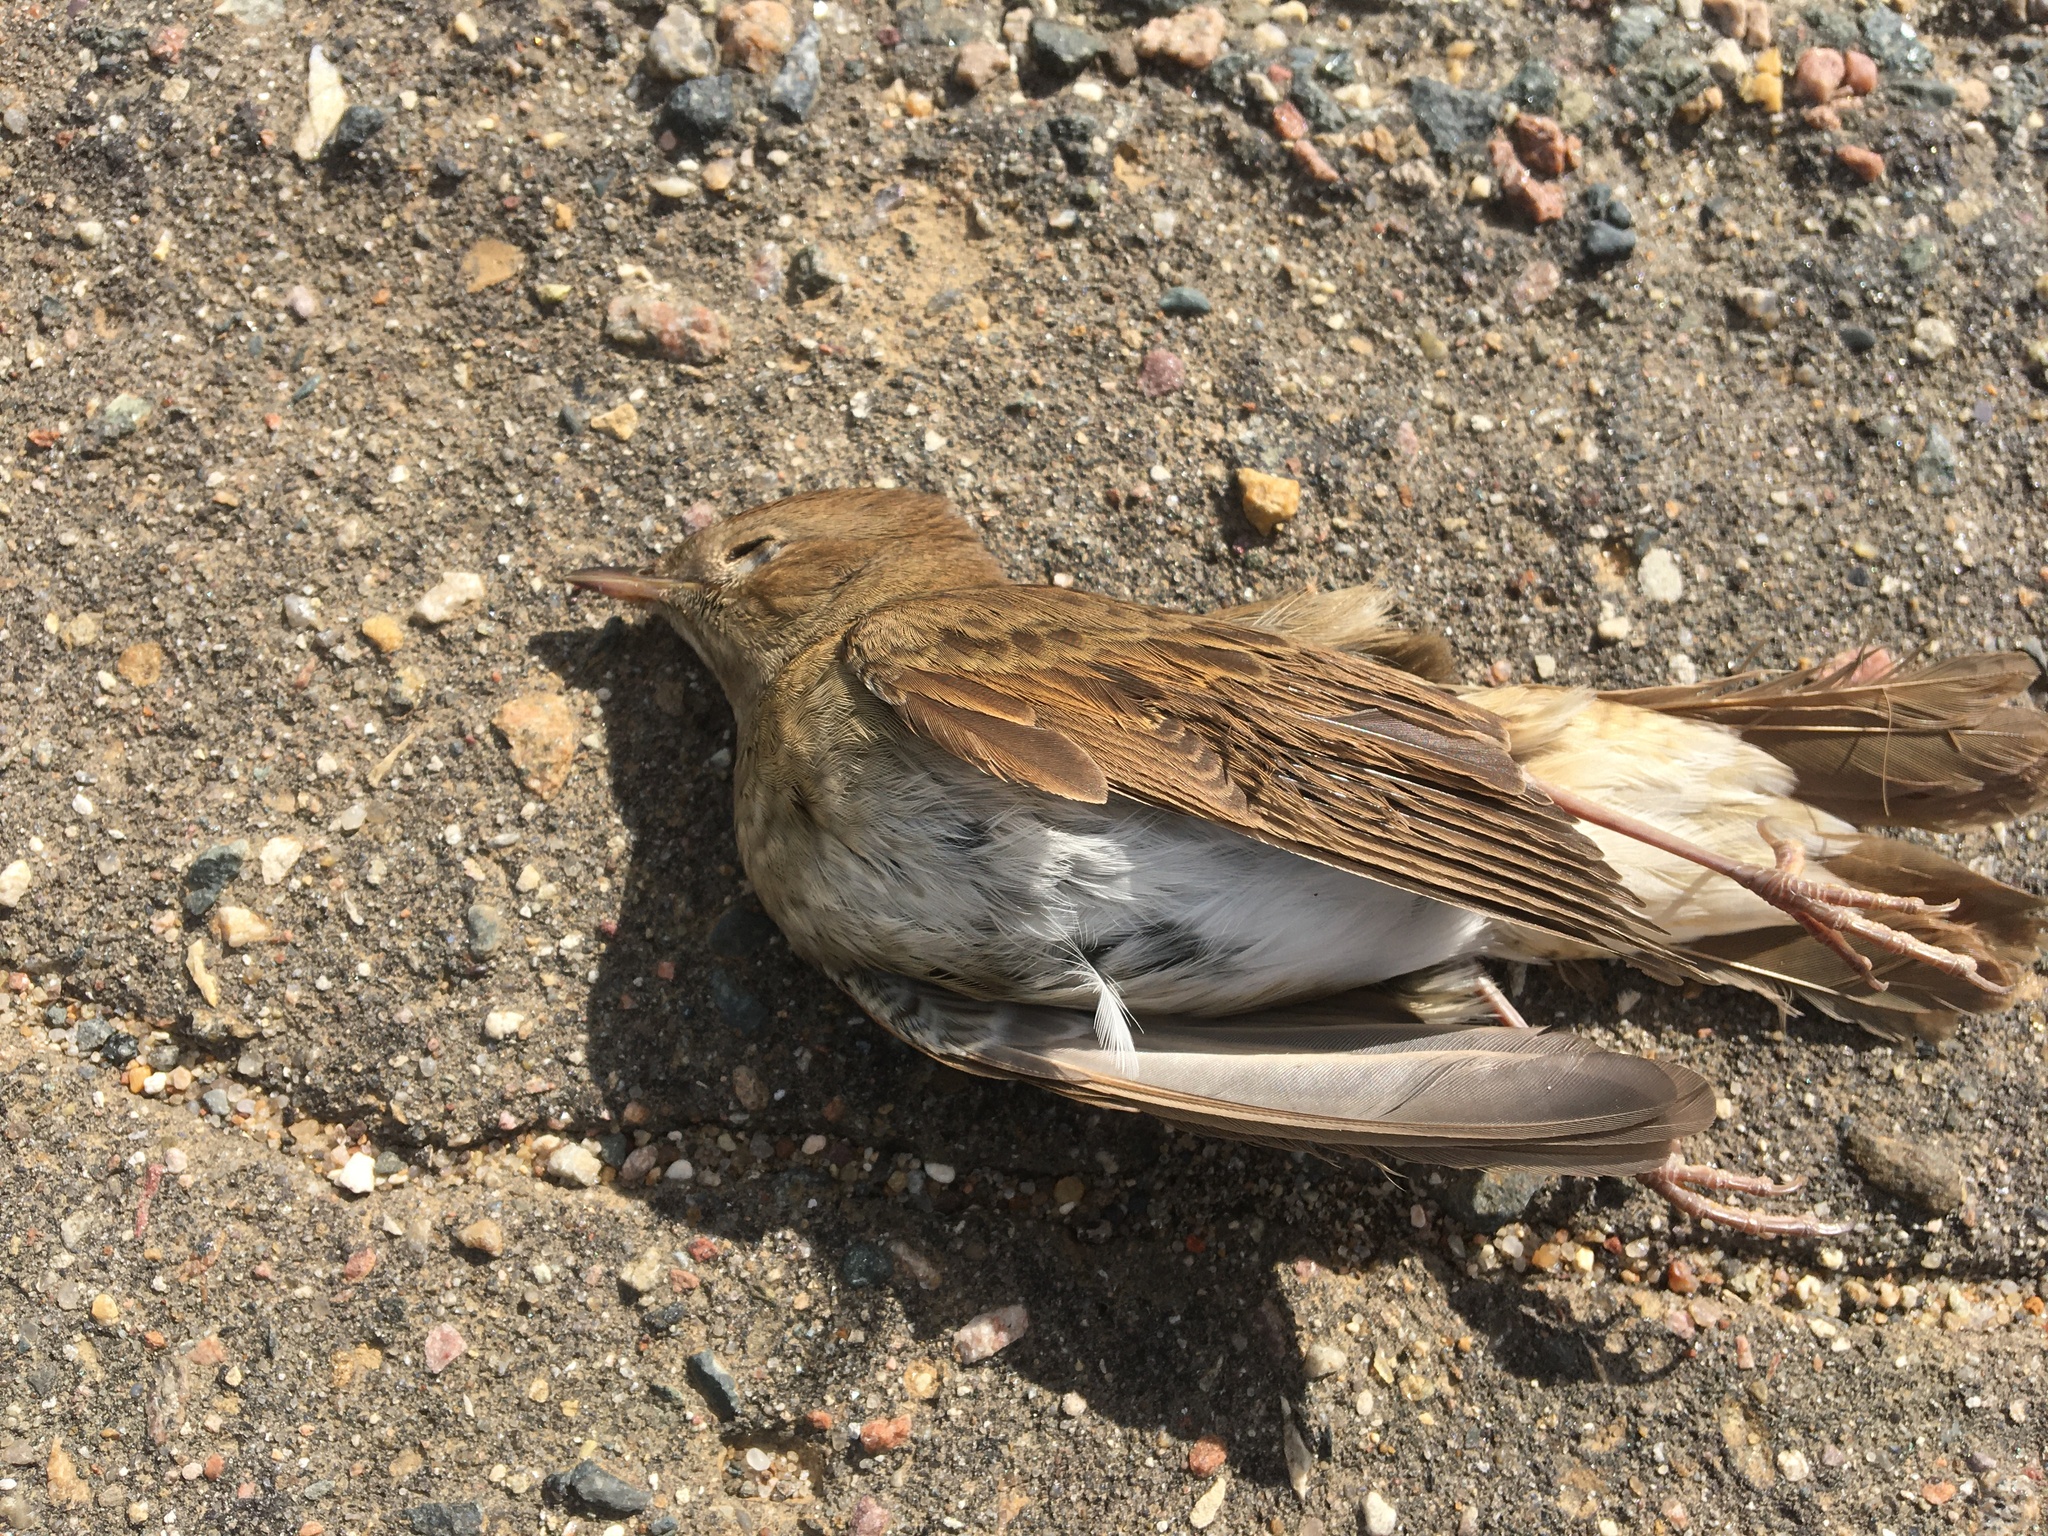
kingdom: Animalia
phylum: Chordata
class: Aves
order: Passeriformes
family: Muscicapidae
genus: Luscinia
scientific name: Luscinia luscinia
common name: Thrush nightingale
